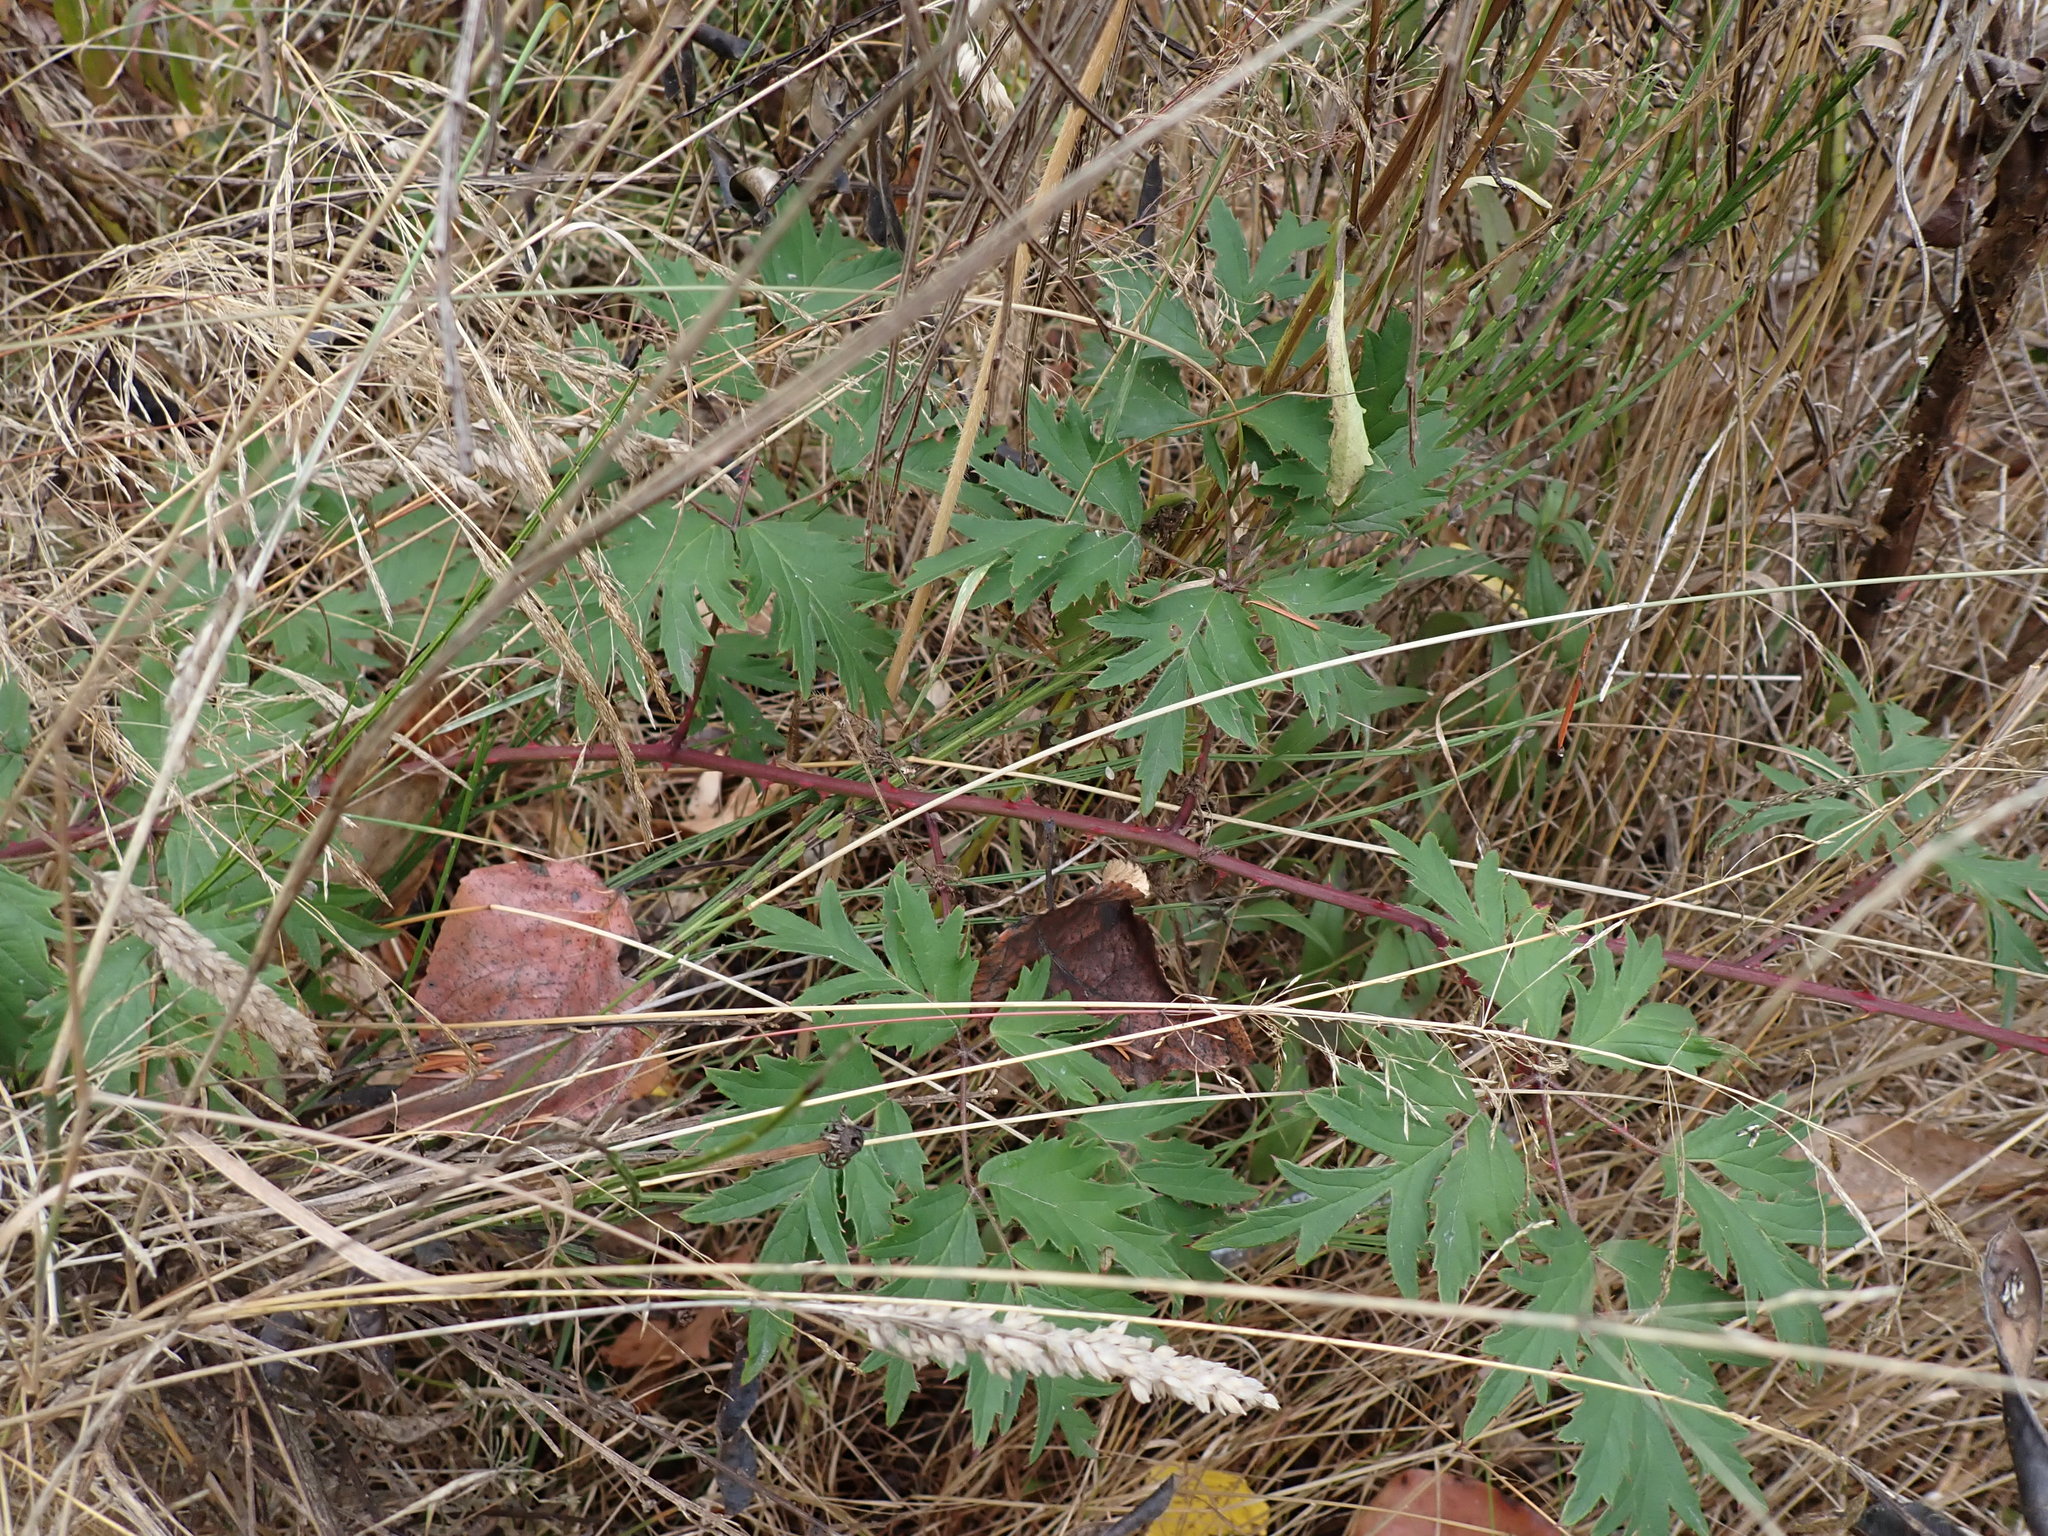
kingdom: Plantae
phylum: Tracheophyta
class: Magnoliopsida
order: Rosales
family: Rosaceae
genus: Rubus
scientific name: Rubus laciniatus
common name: Evergreen blackberry
